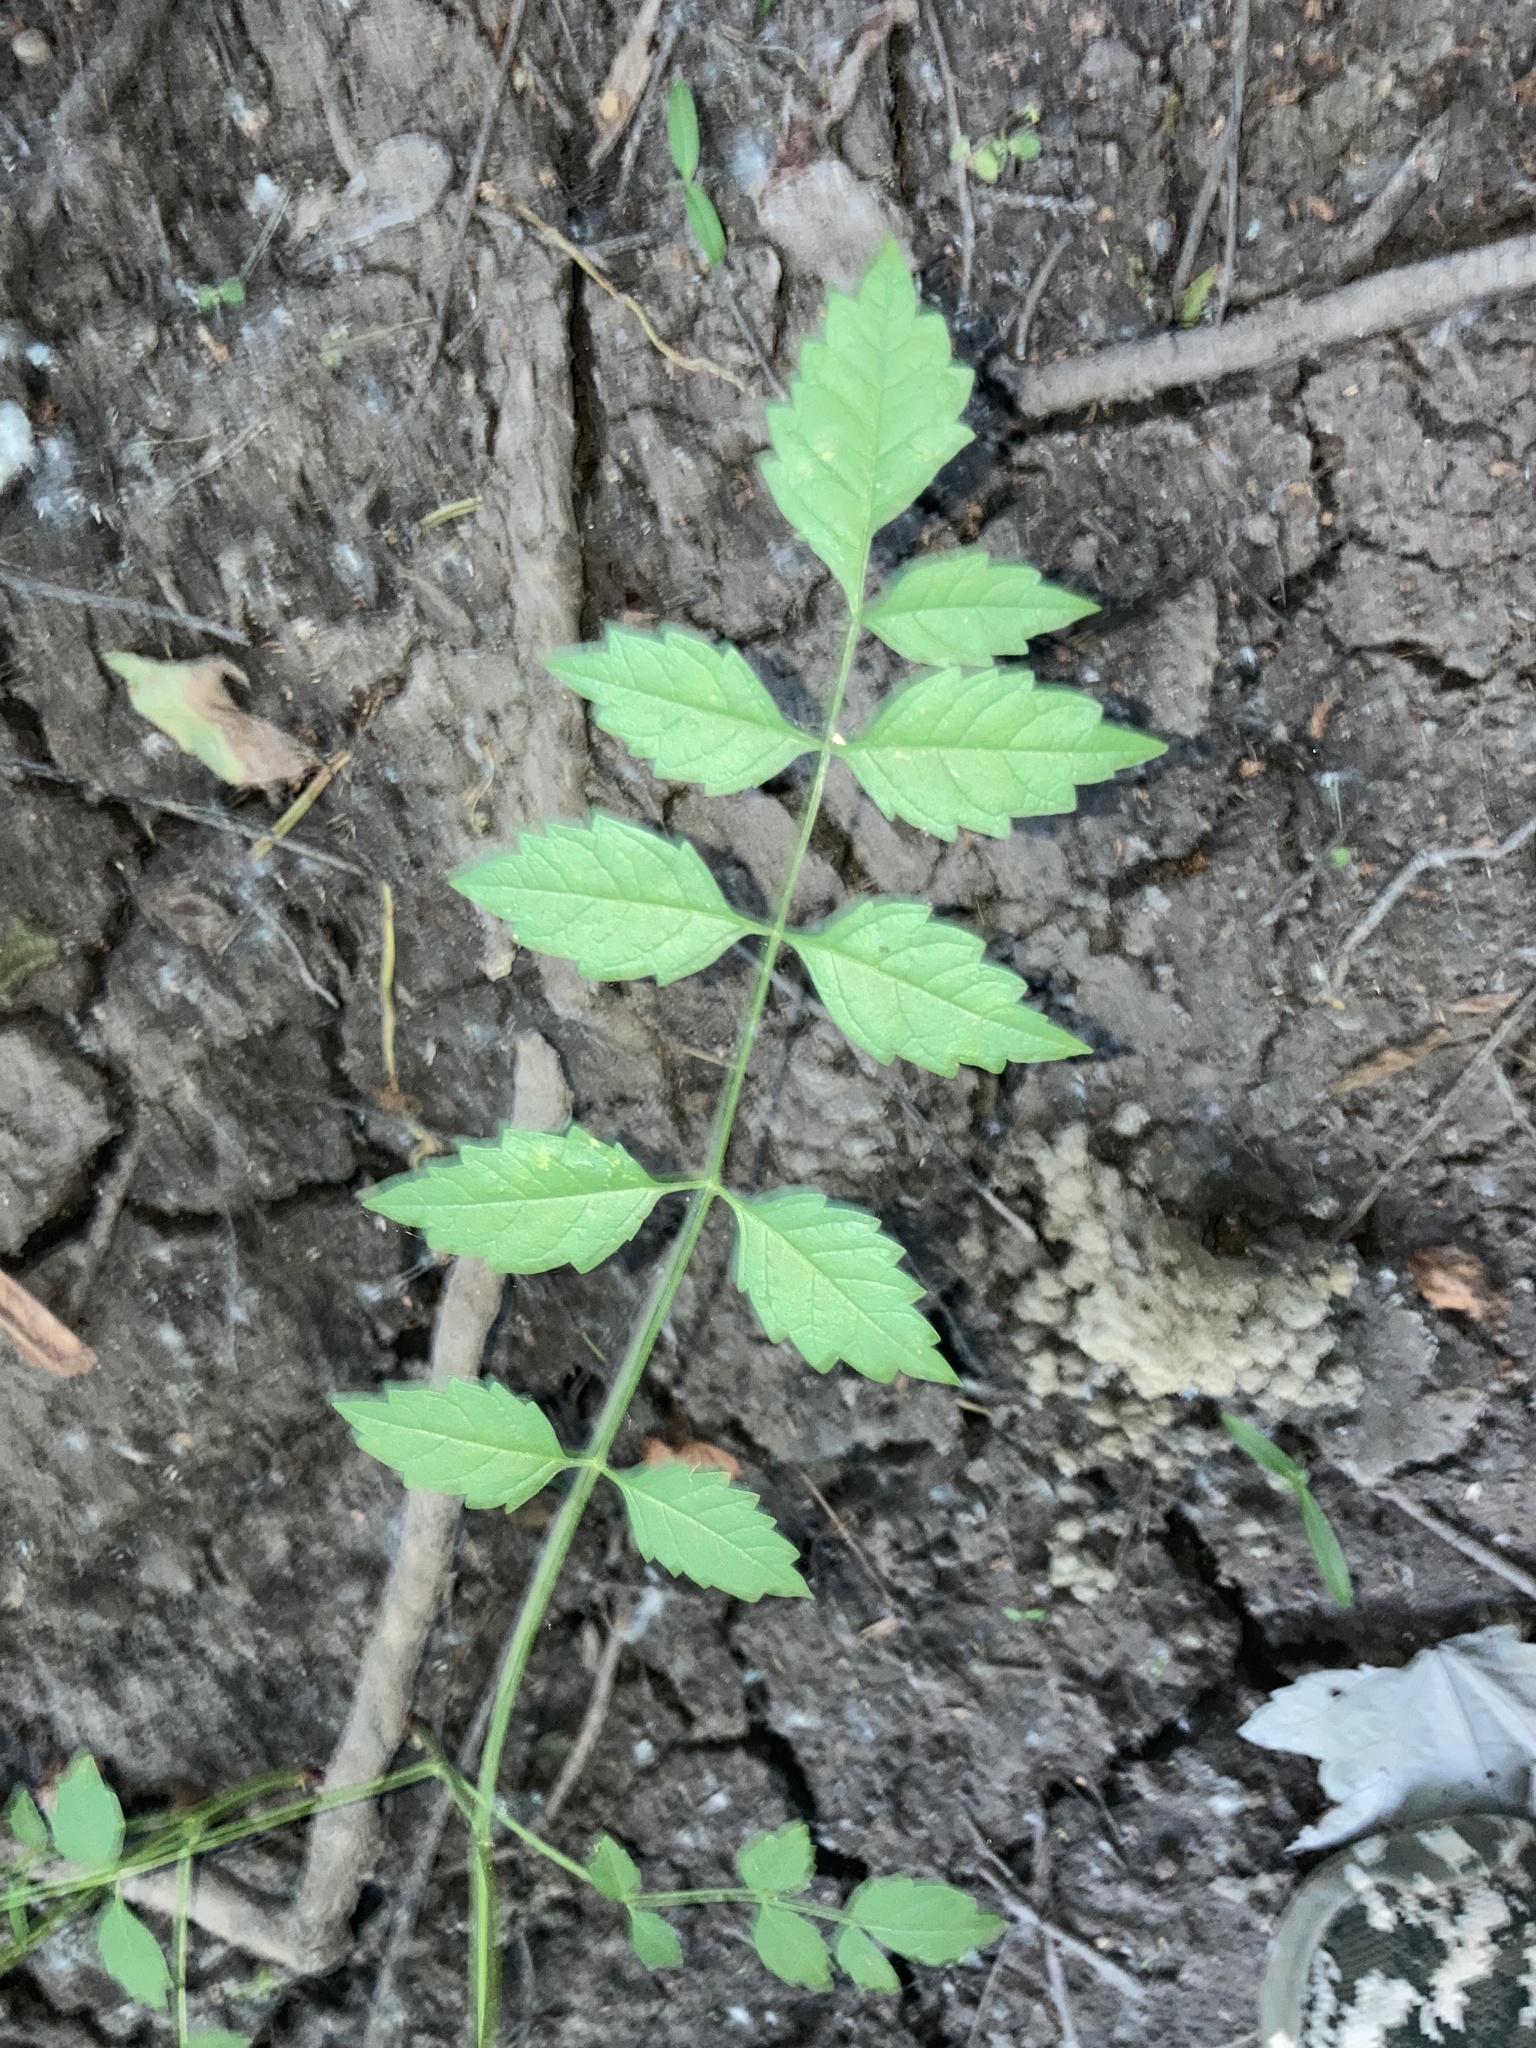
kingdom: Plantae
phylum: Tracheophyta
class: Magnoliopsida
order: Lamiales
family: Bignoniaceae
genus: Campsis
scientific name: Campsis radicans
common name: Trumpet-creeper
